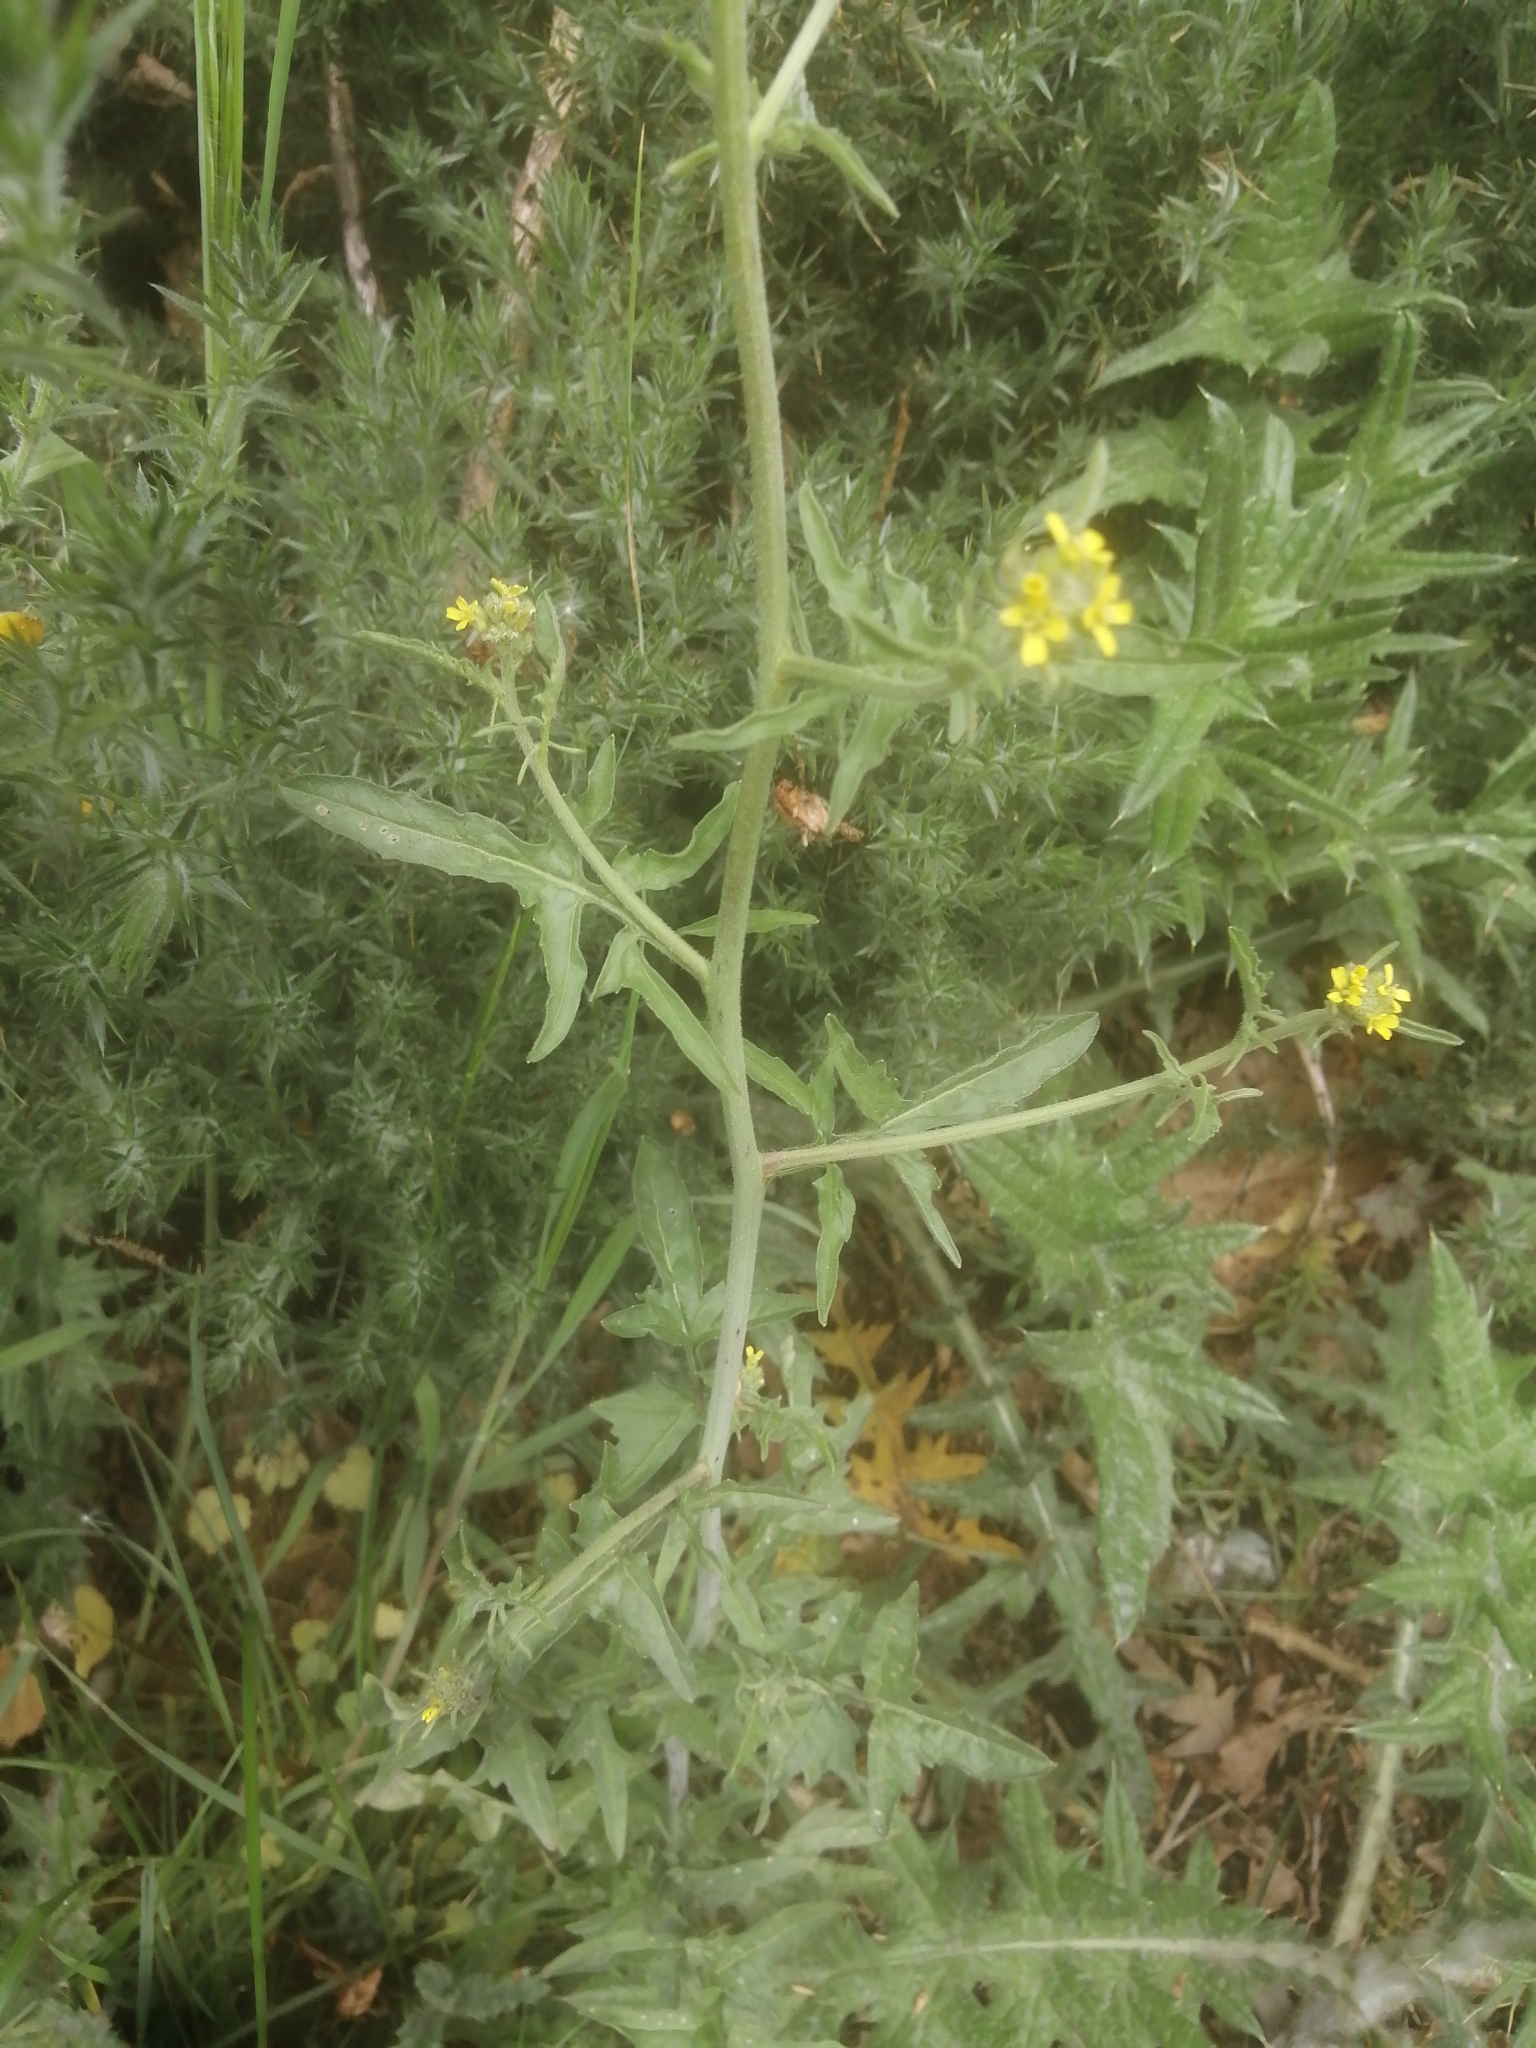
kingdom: Plantae
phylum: Tracheophyta
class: Magnoliopsida
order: Brassicales
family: Brassicaceae
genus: Sisymbrium
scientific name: Sisymbrium officinale
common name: Hedge mustard
